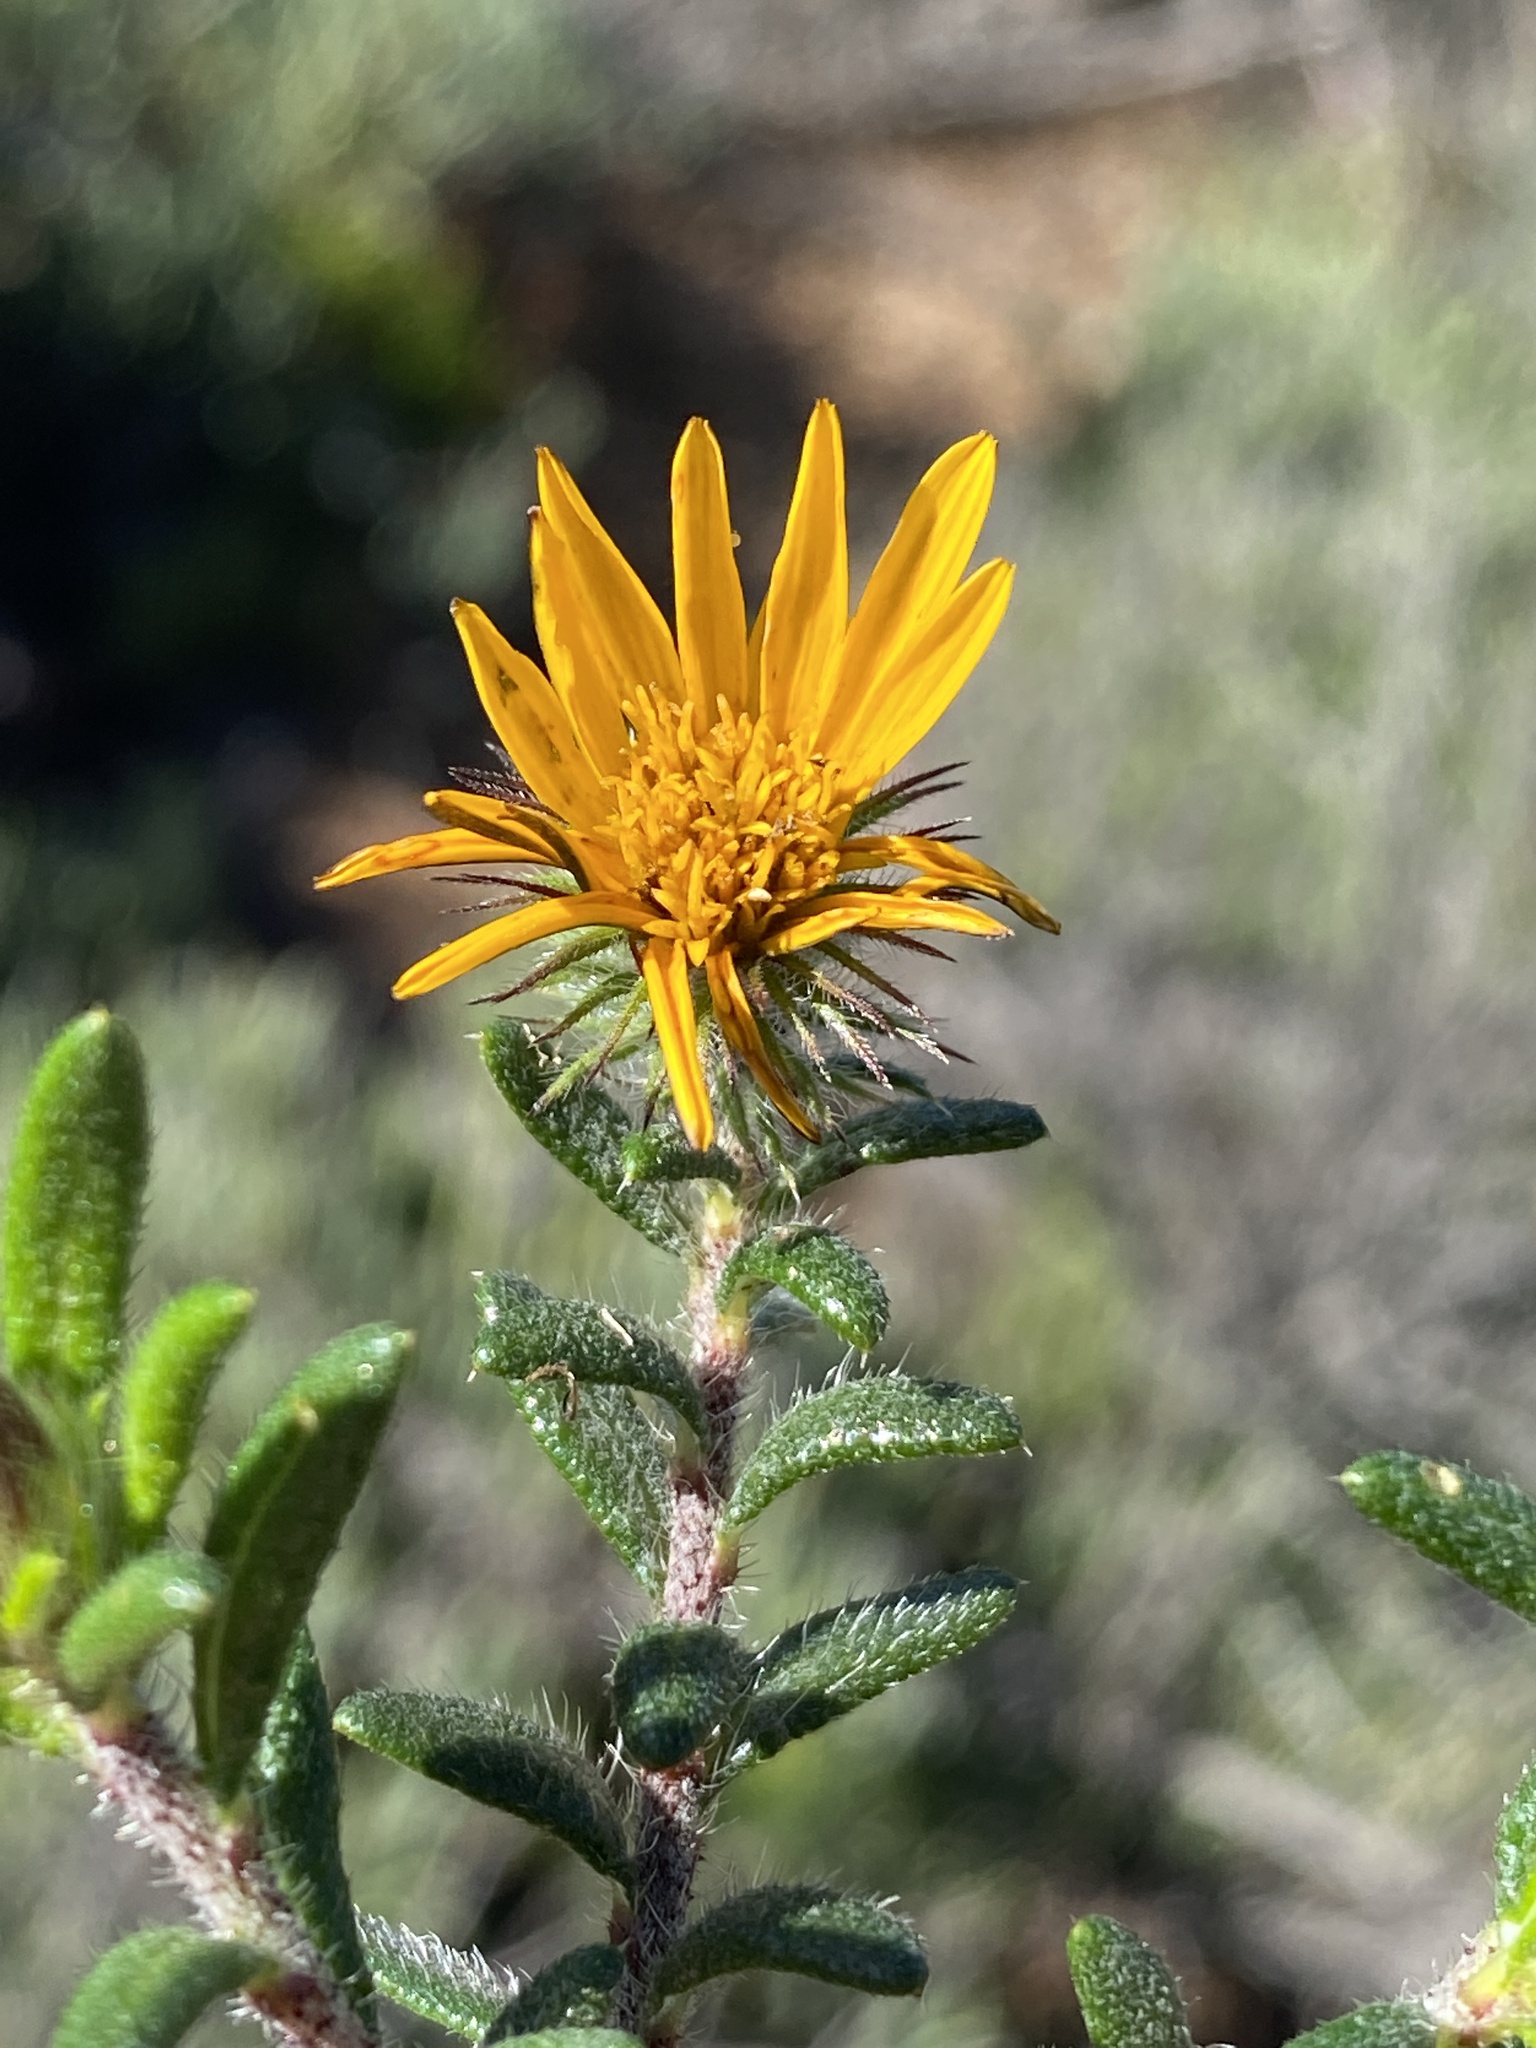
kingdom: Plantae
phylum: Tracheophyta
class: Magnoliopsida
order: Asterales
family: Asteraceae
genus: Hirpicium
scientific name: Hirpicium integrifolium
